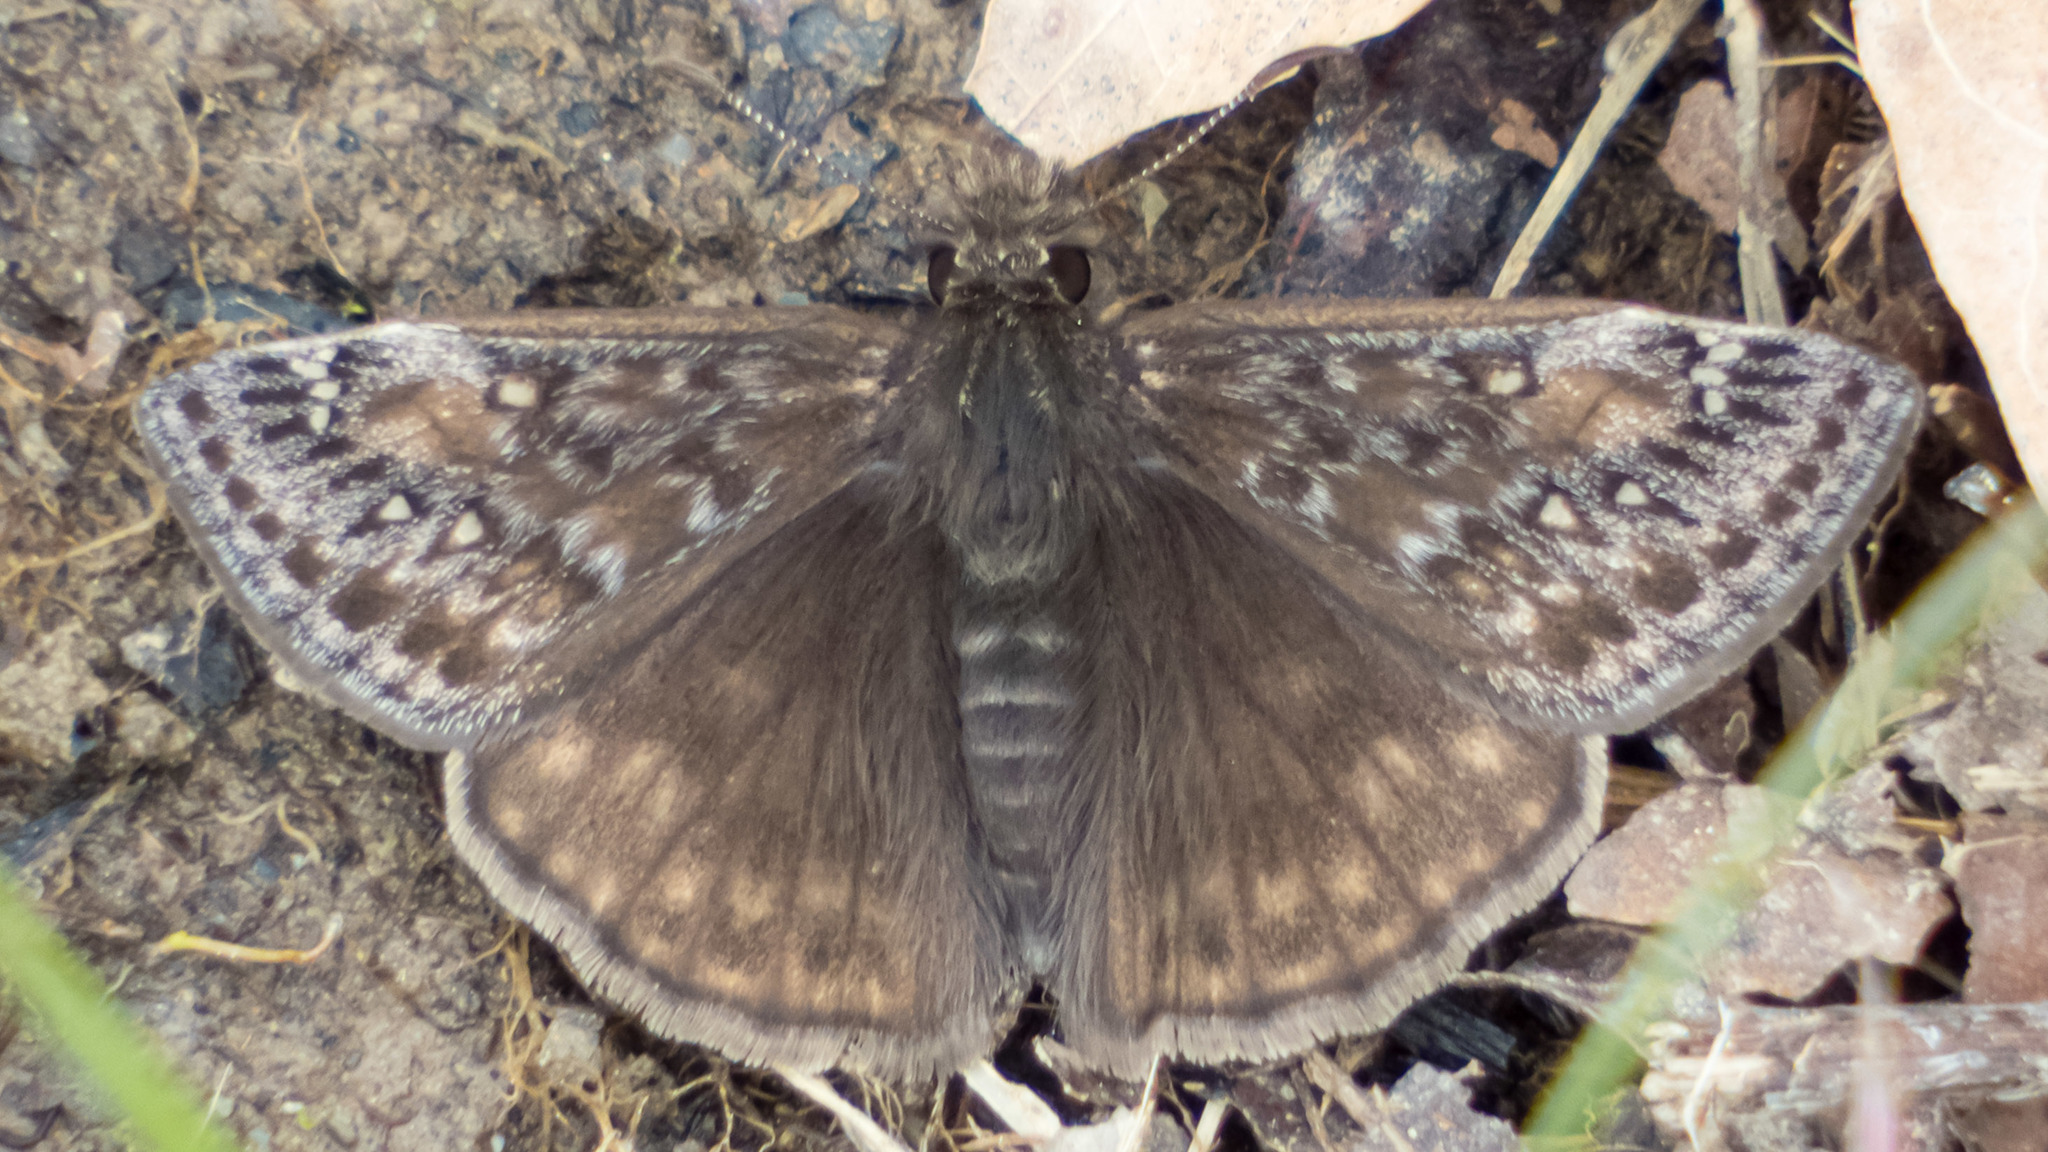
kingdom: Animalia
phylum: Arthropoda
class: Insecta
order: Lepidoptera
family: Hesperiidae
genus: Erynnis
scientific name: Erynnis juvenalis
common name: Juvenal's duskywing
